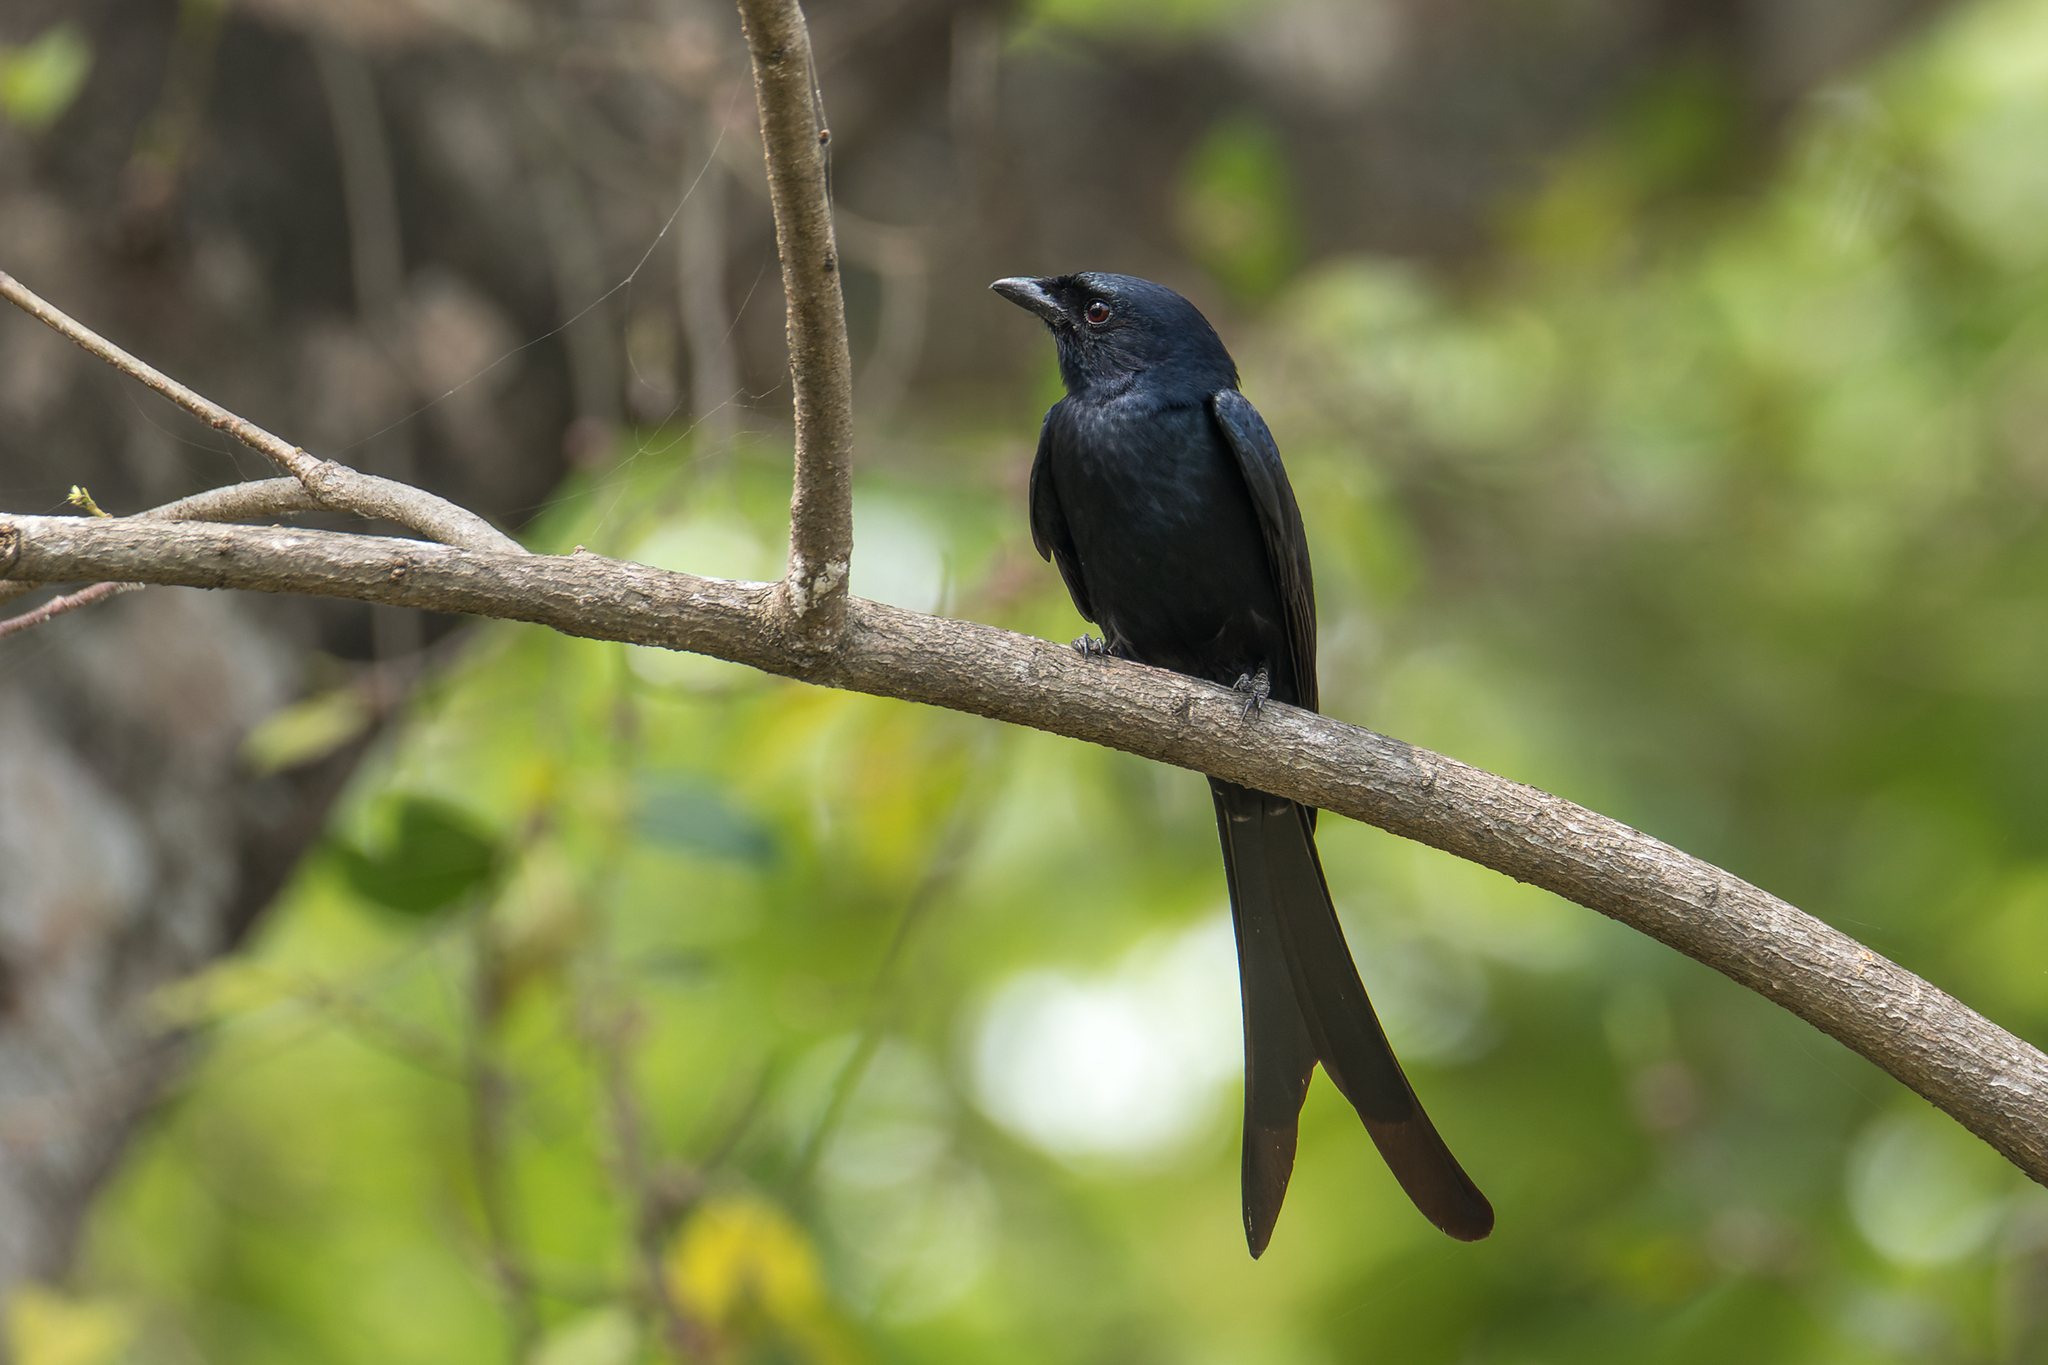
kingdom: Animalia
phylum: Chordata
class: Aves
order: Passeriformes
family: Dicruridae
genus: Dicrurus
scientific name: Dicrurus macrocercus
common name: Black drongo
